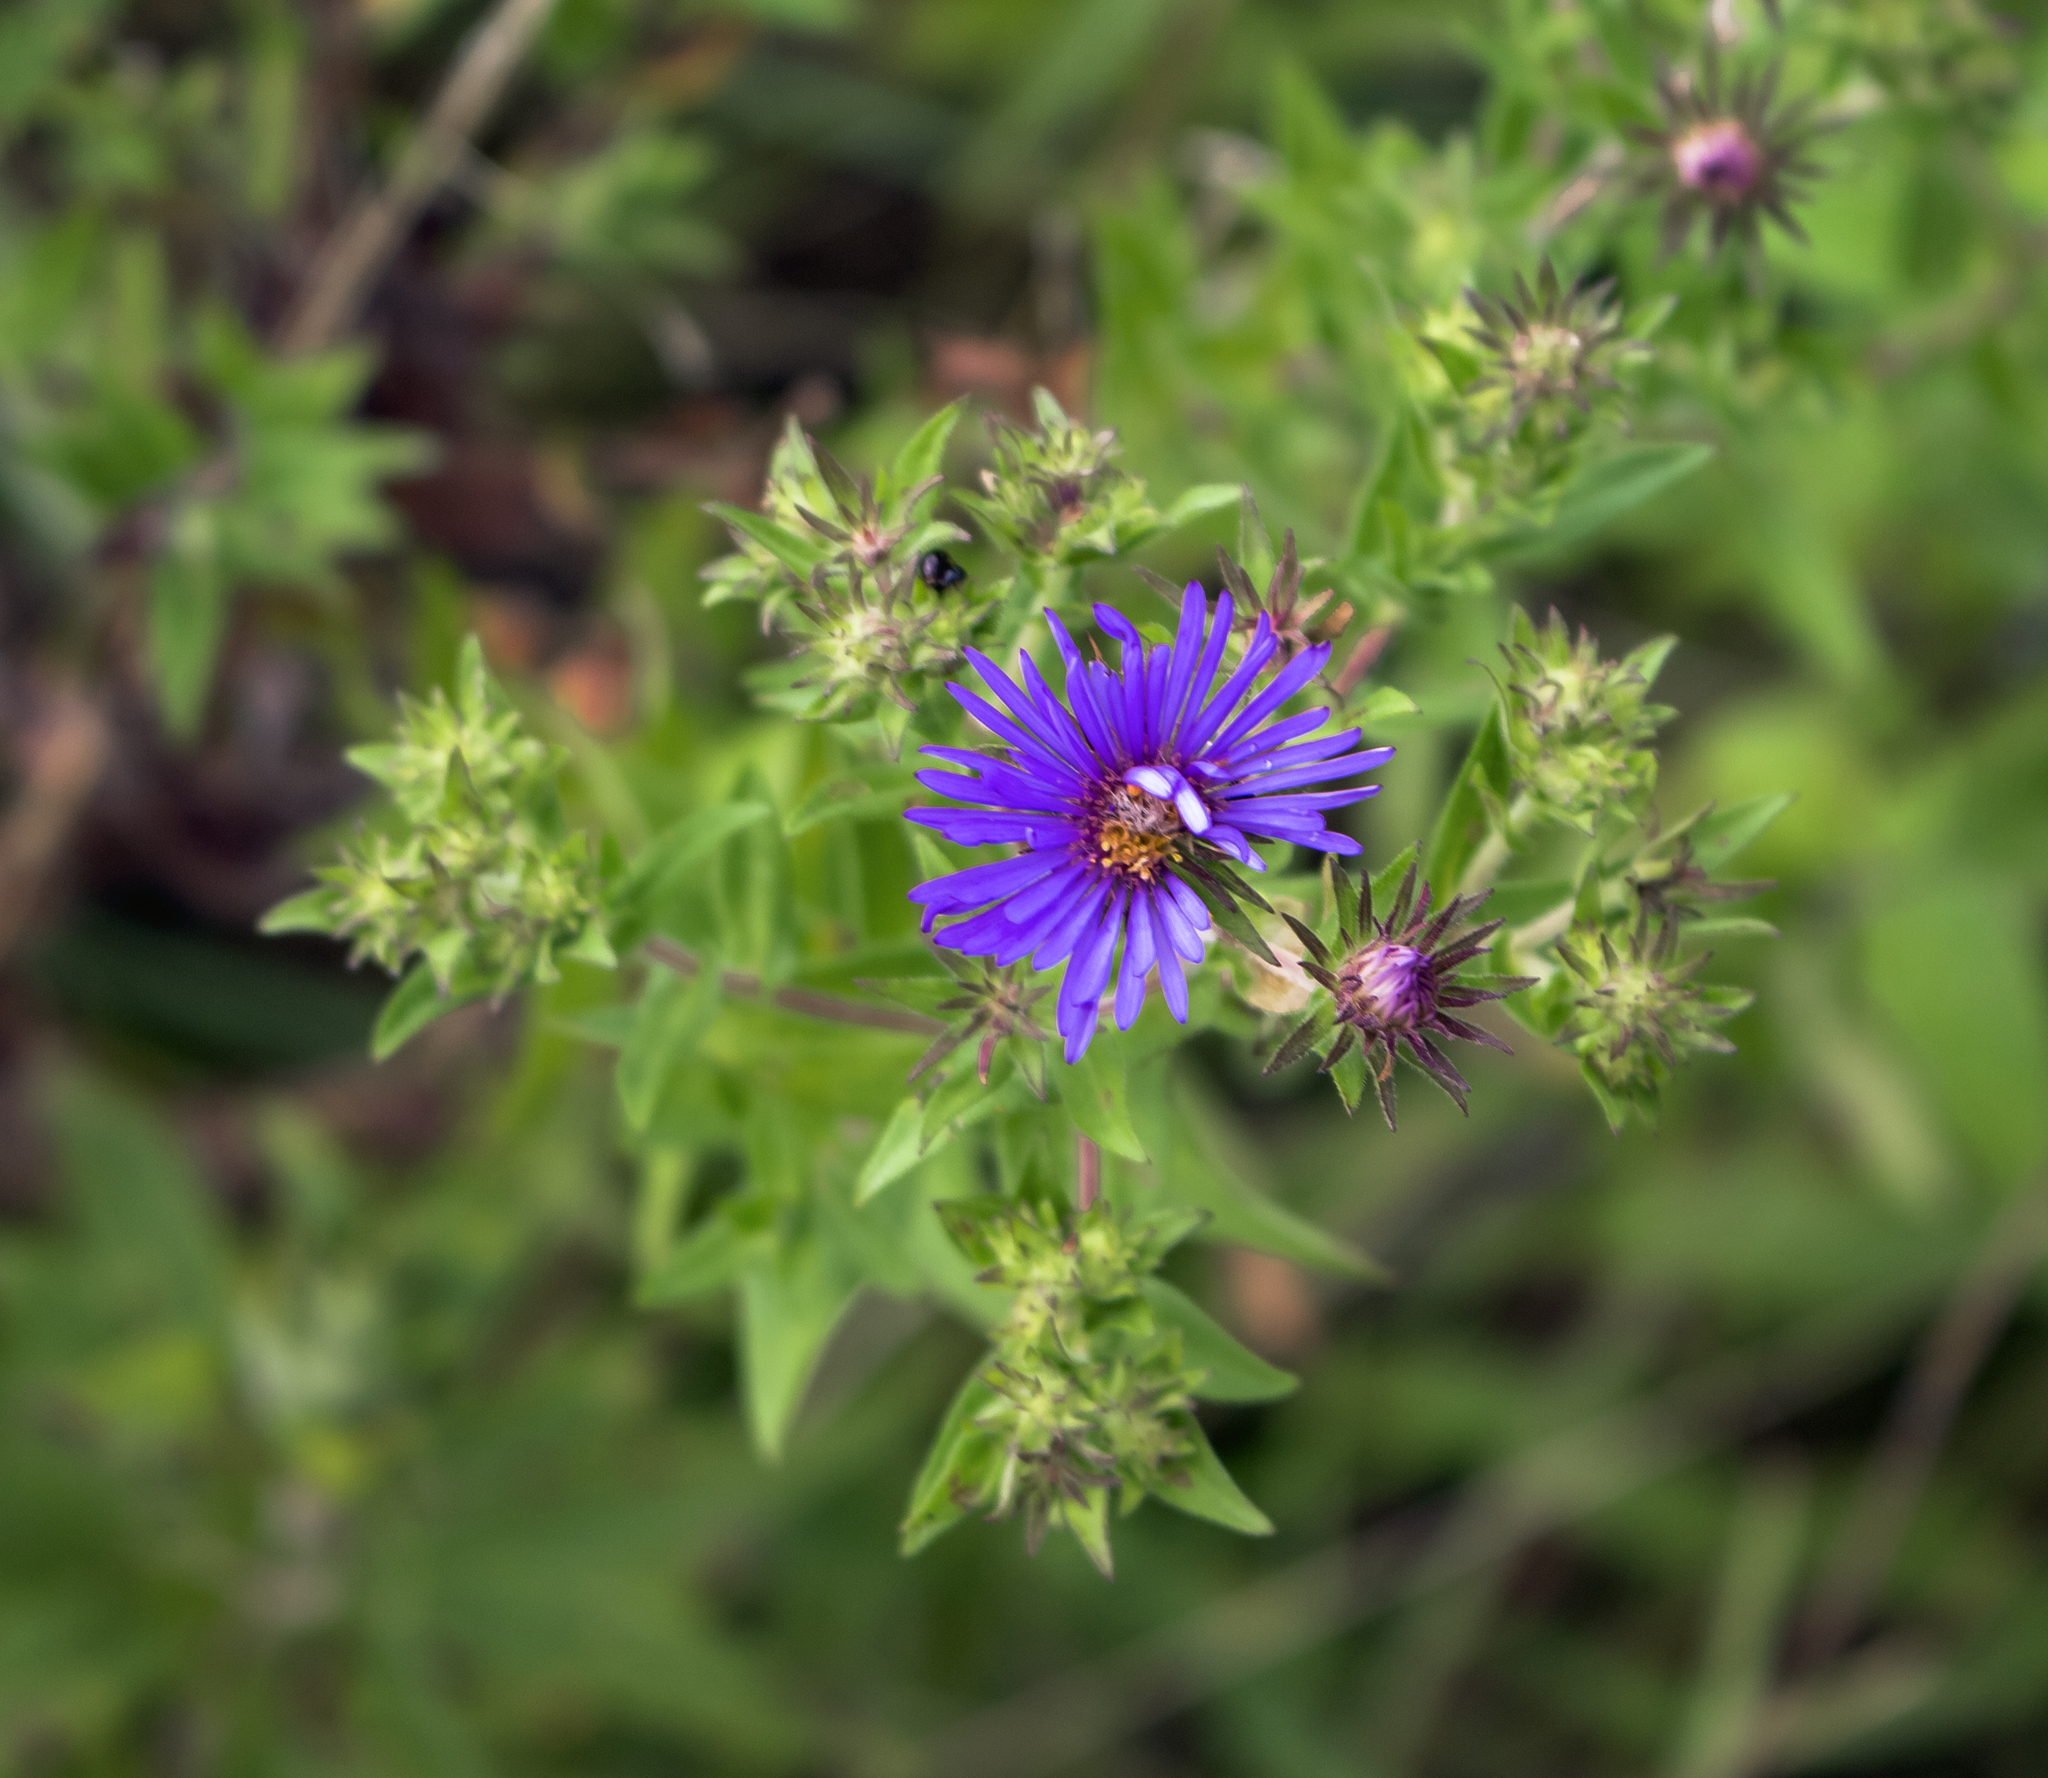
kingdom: Plantae
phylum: Tracheophyta
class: Magnoliopsida
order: Asterales
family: Asteraceae
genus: Symphyotrichum
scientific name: Symphyotrichum novae-angliae
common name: Michaelmas daisy
